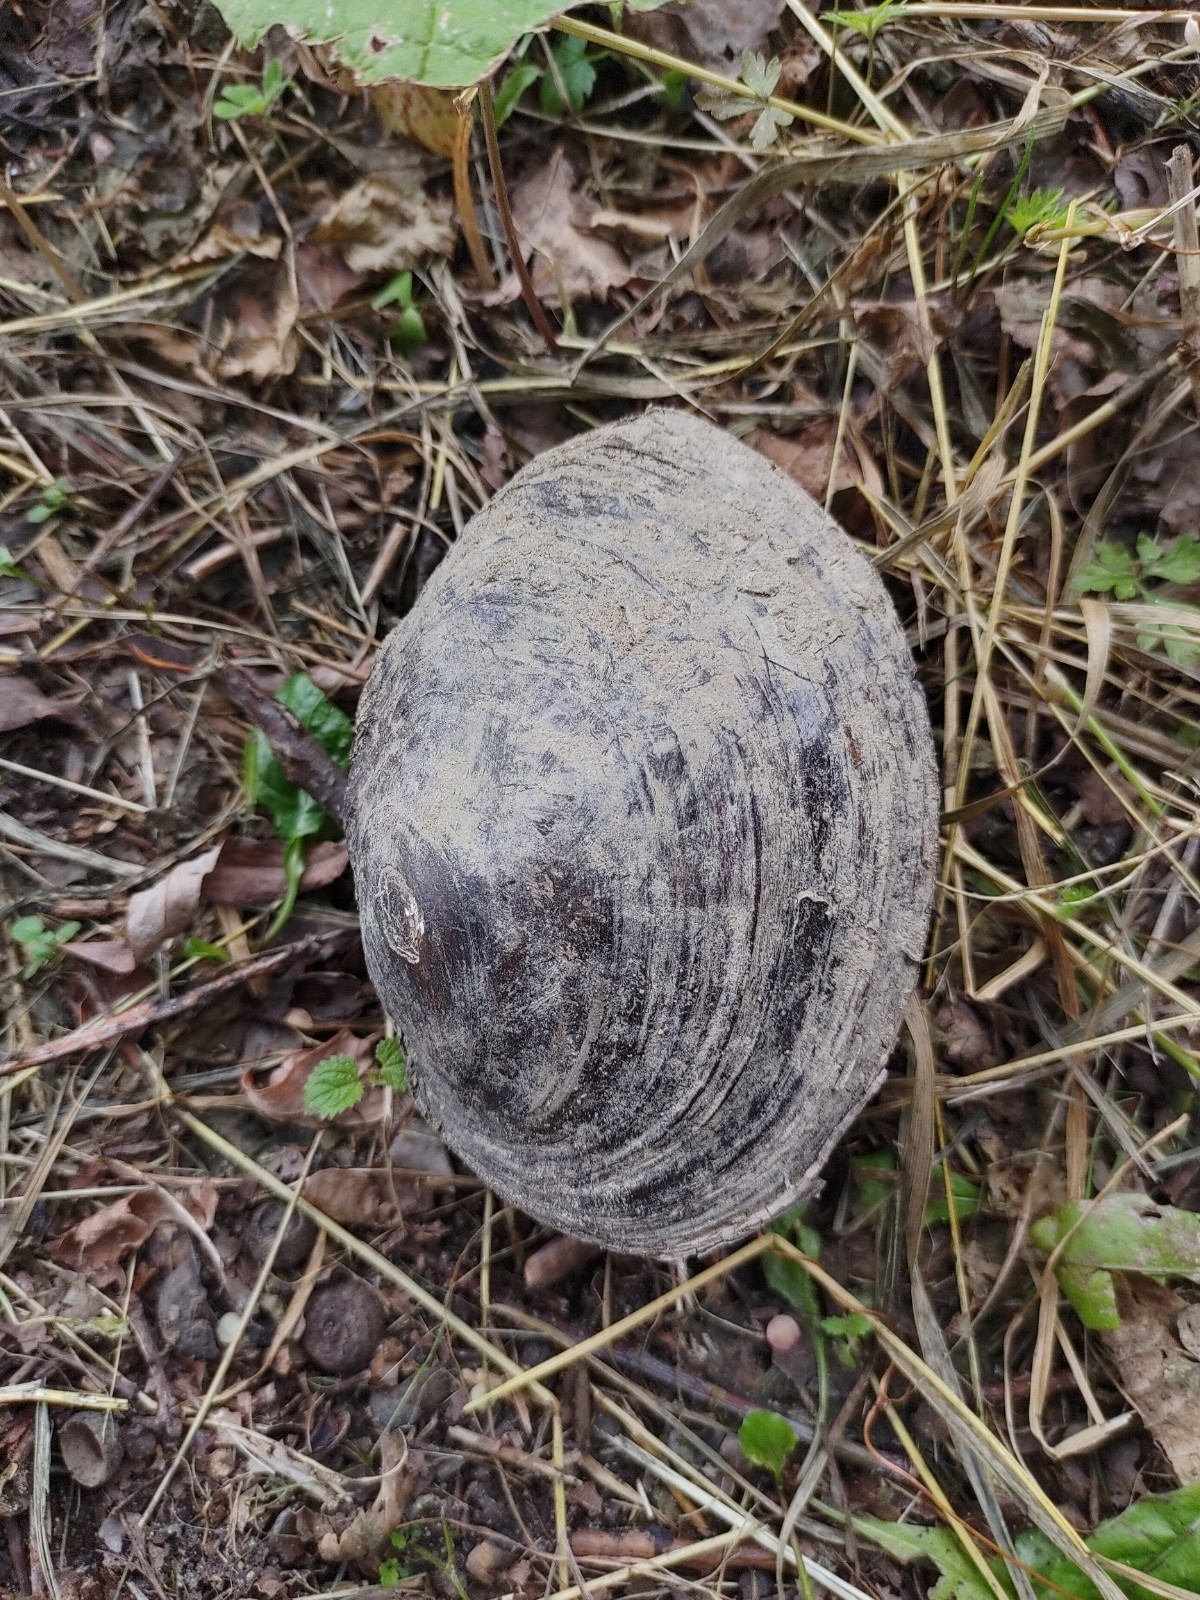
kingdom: Animalia
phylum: Mollusca
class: Bivalvia
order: Unionida
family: Unionidae
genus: Sinanodonta
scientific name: Sinanodonta woodiana
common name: Chinese pond mussel
